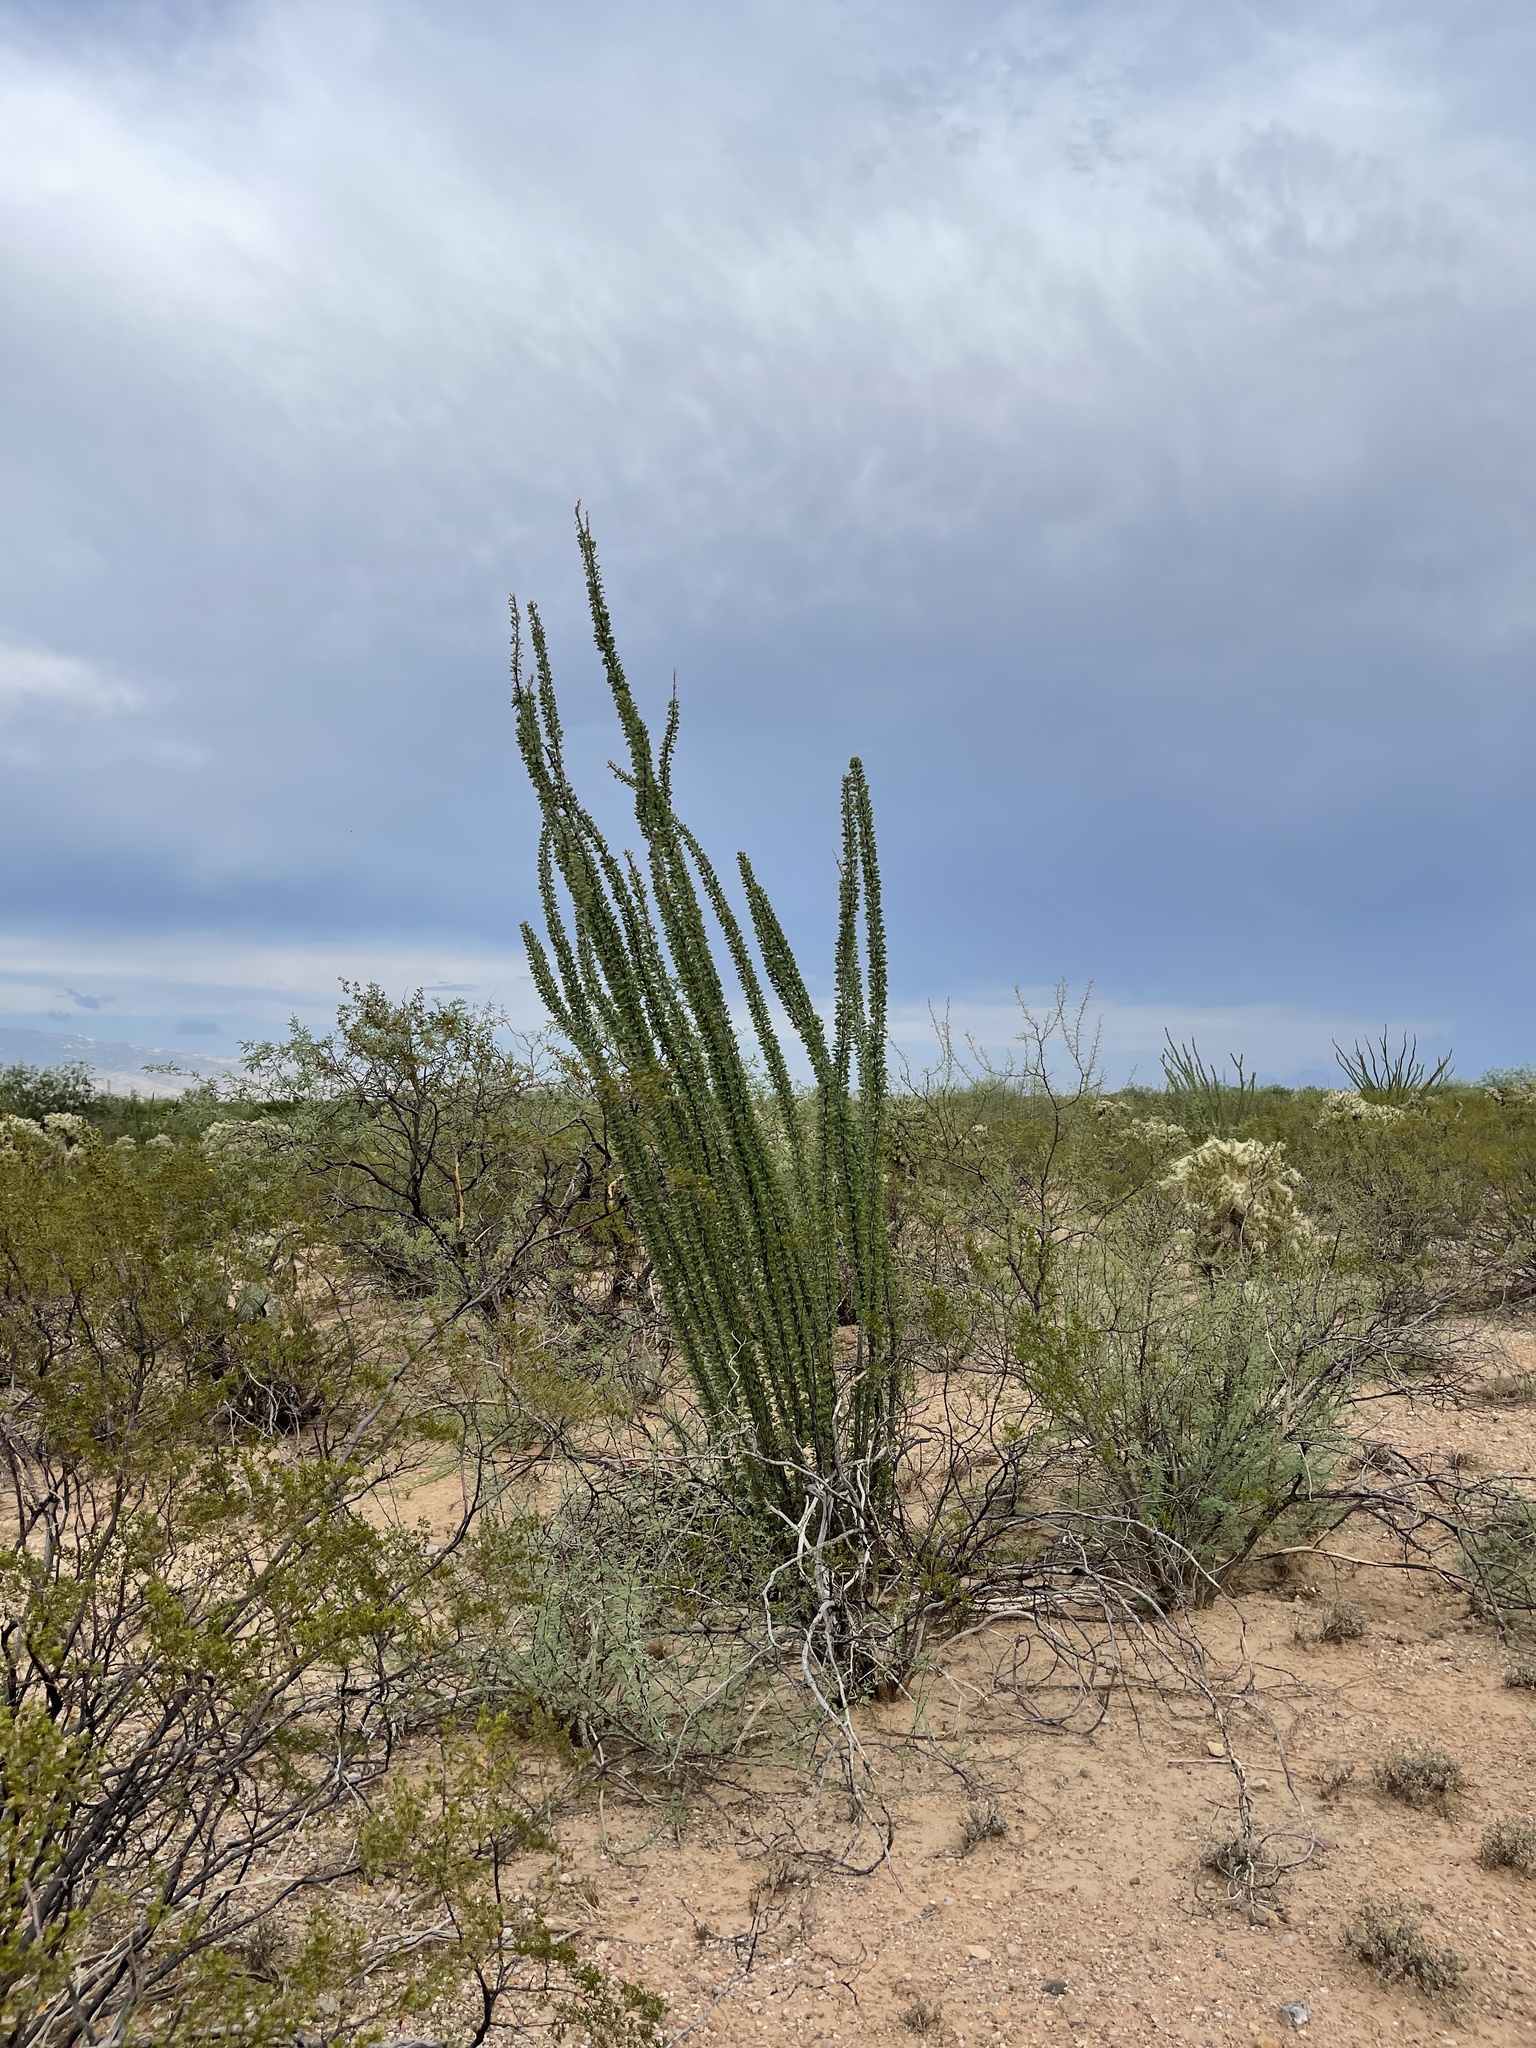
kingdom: Plantae
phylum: Tracheophyta
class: Magnoliopsida
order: Ericales
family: Fouquieriaceae
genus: Fouquieria
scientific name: Fouquieria splendens
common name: Vine-cactus
